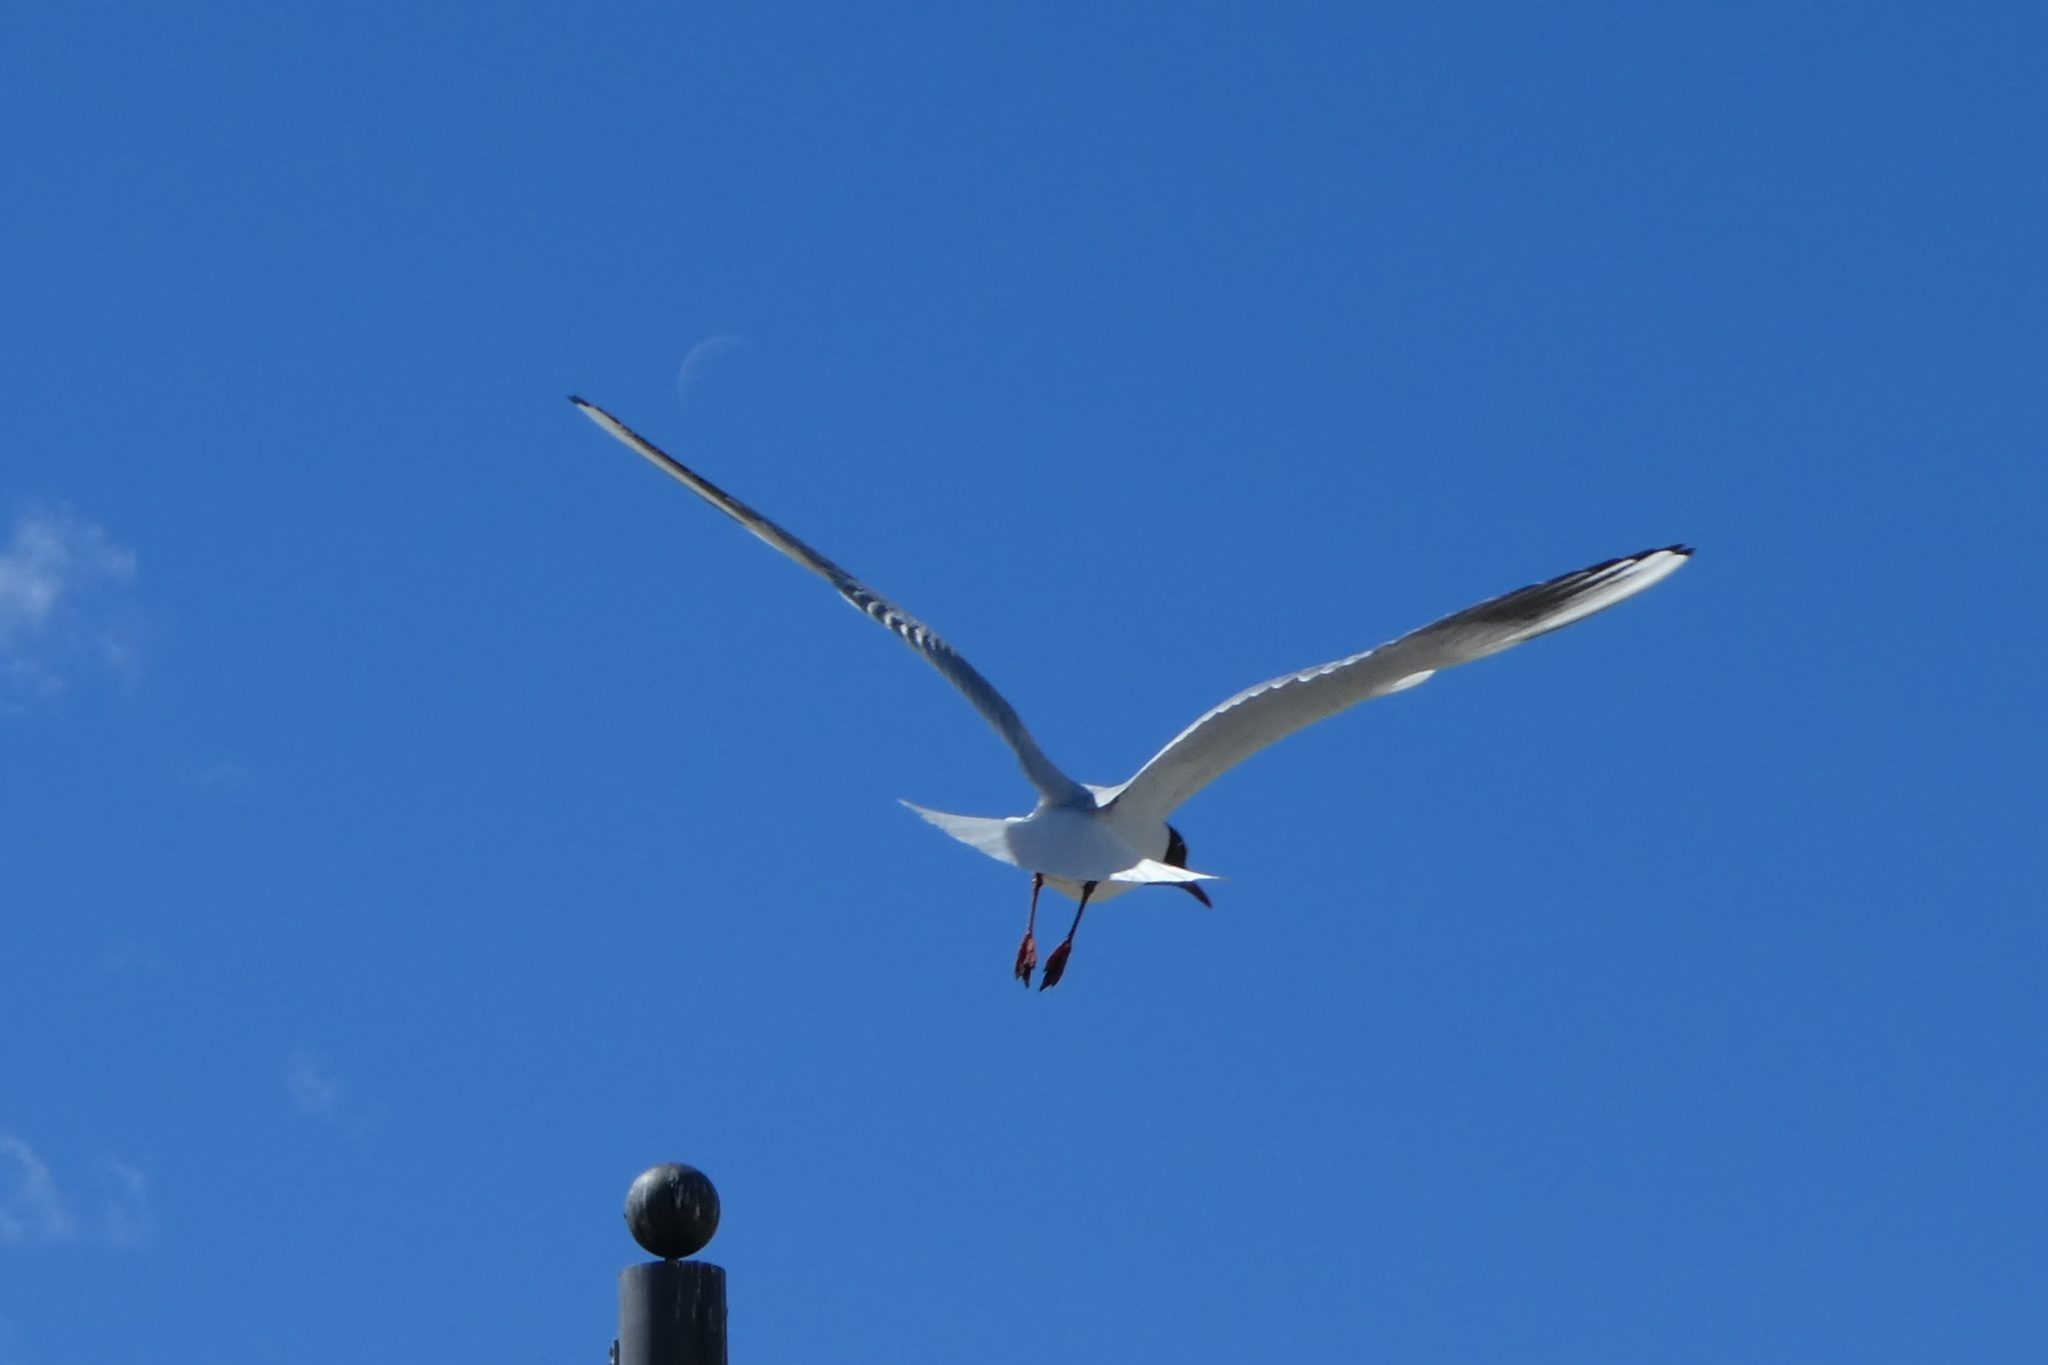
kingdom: Animalia
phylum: Chordata
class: Aves
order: Charadriiformes
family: Laridae
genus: Chroicocephalus
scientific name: Chroicocephalus ridibundus
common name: Black-headed gull
